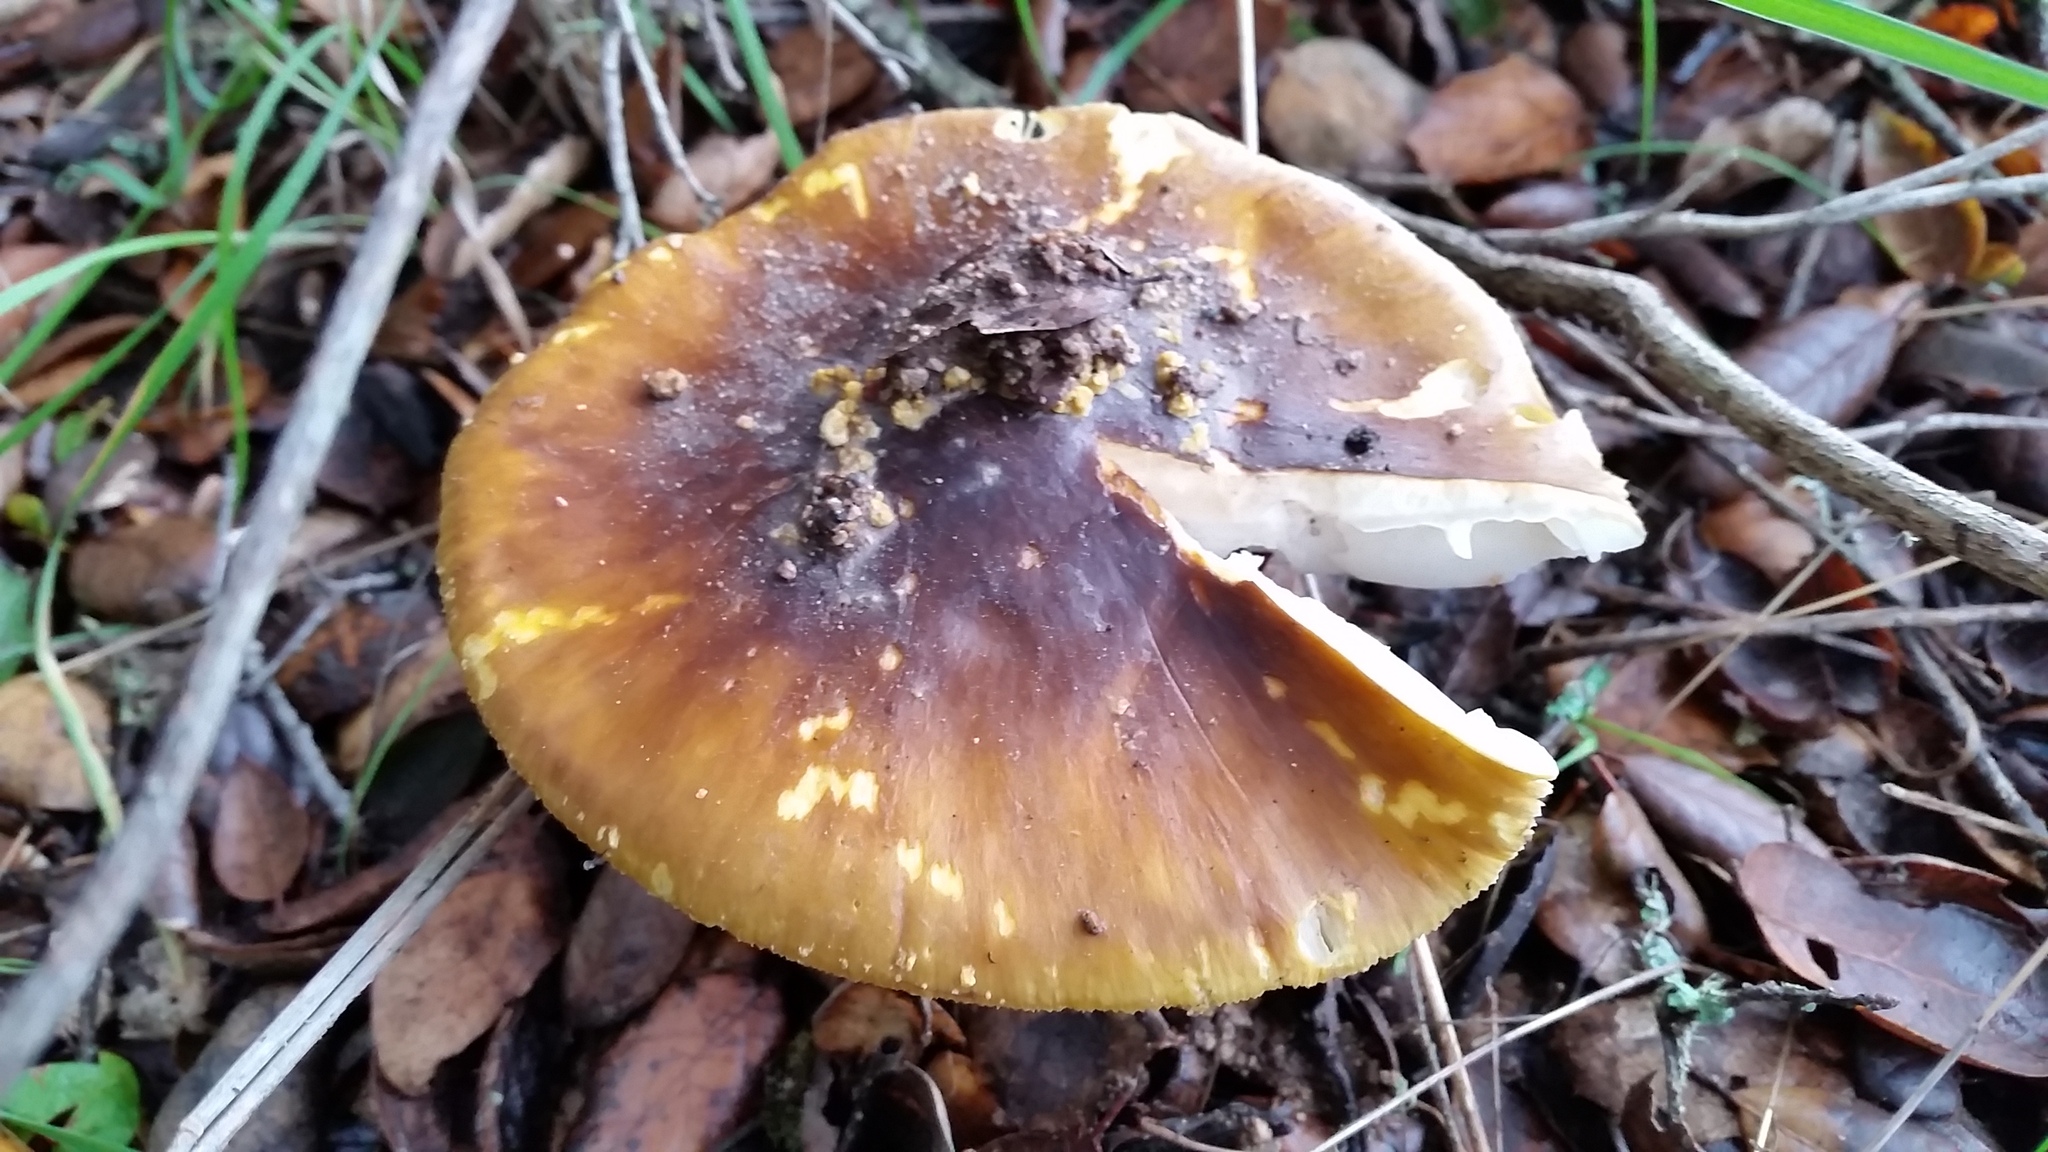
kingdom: Fungi
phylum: Basidiomycota
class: Agaricomycetes
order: Agaricales
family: Amanitaceae
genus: Amanita
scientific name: Amanita augusta
